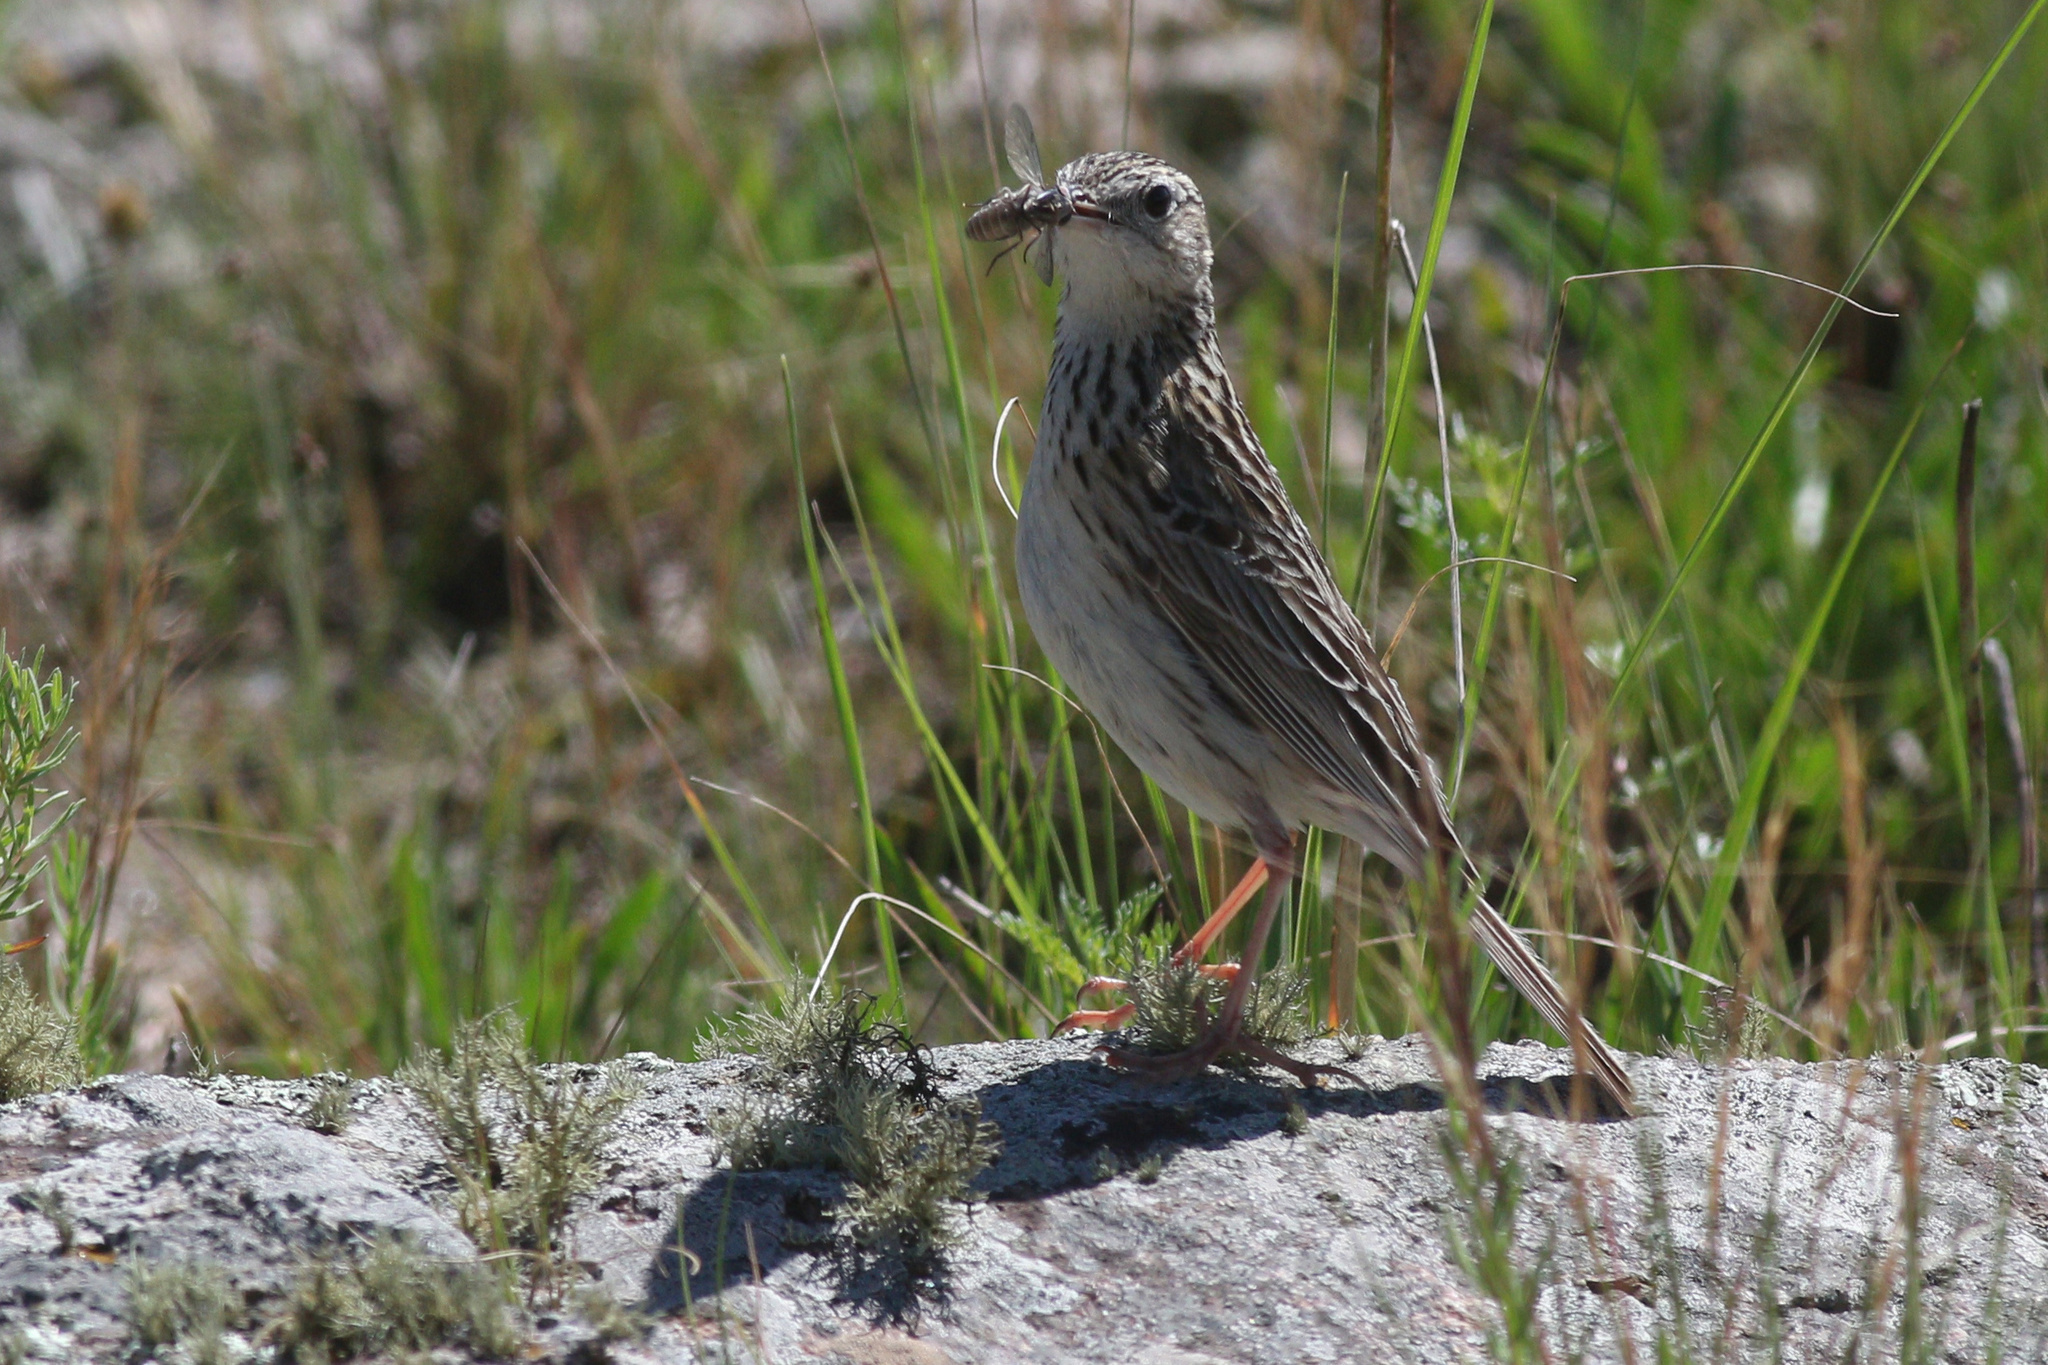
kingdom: Animalia
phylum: Chordata
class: Aves
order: Passeriformes
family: Motacillidae
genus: Anthus
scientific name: Anthus hellmayri
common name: Hellmayr's pipit
